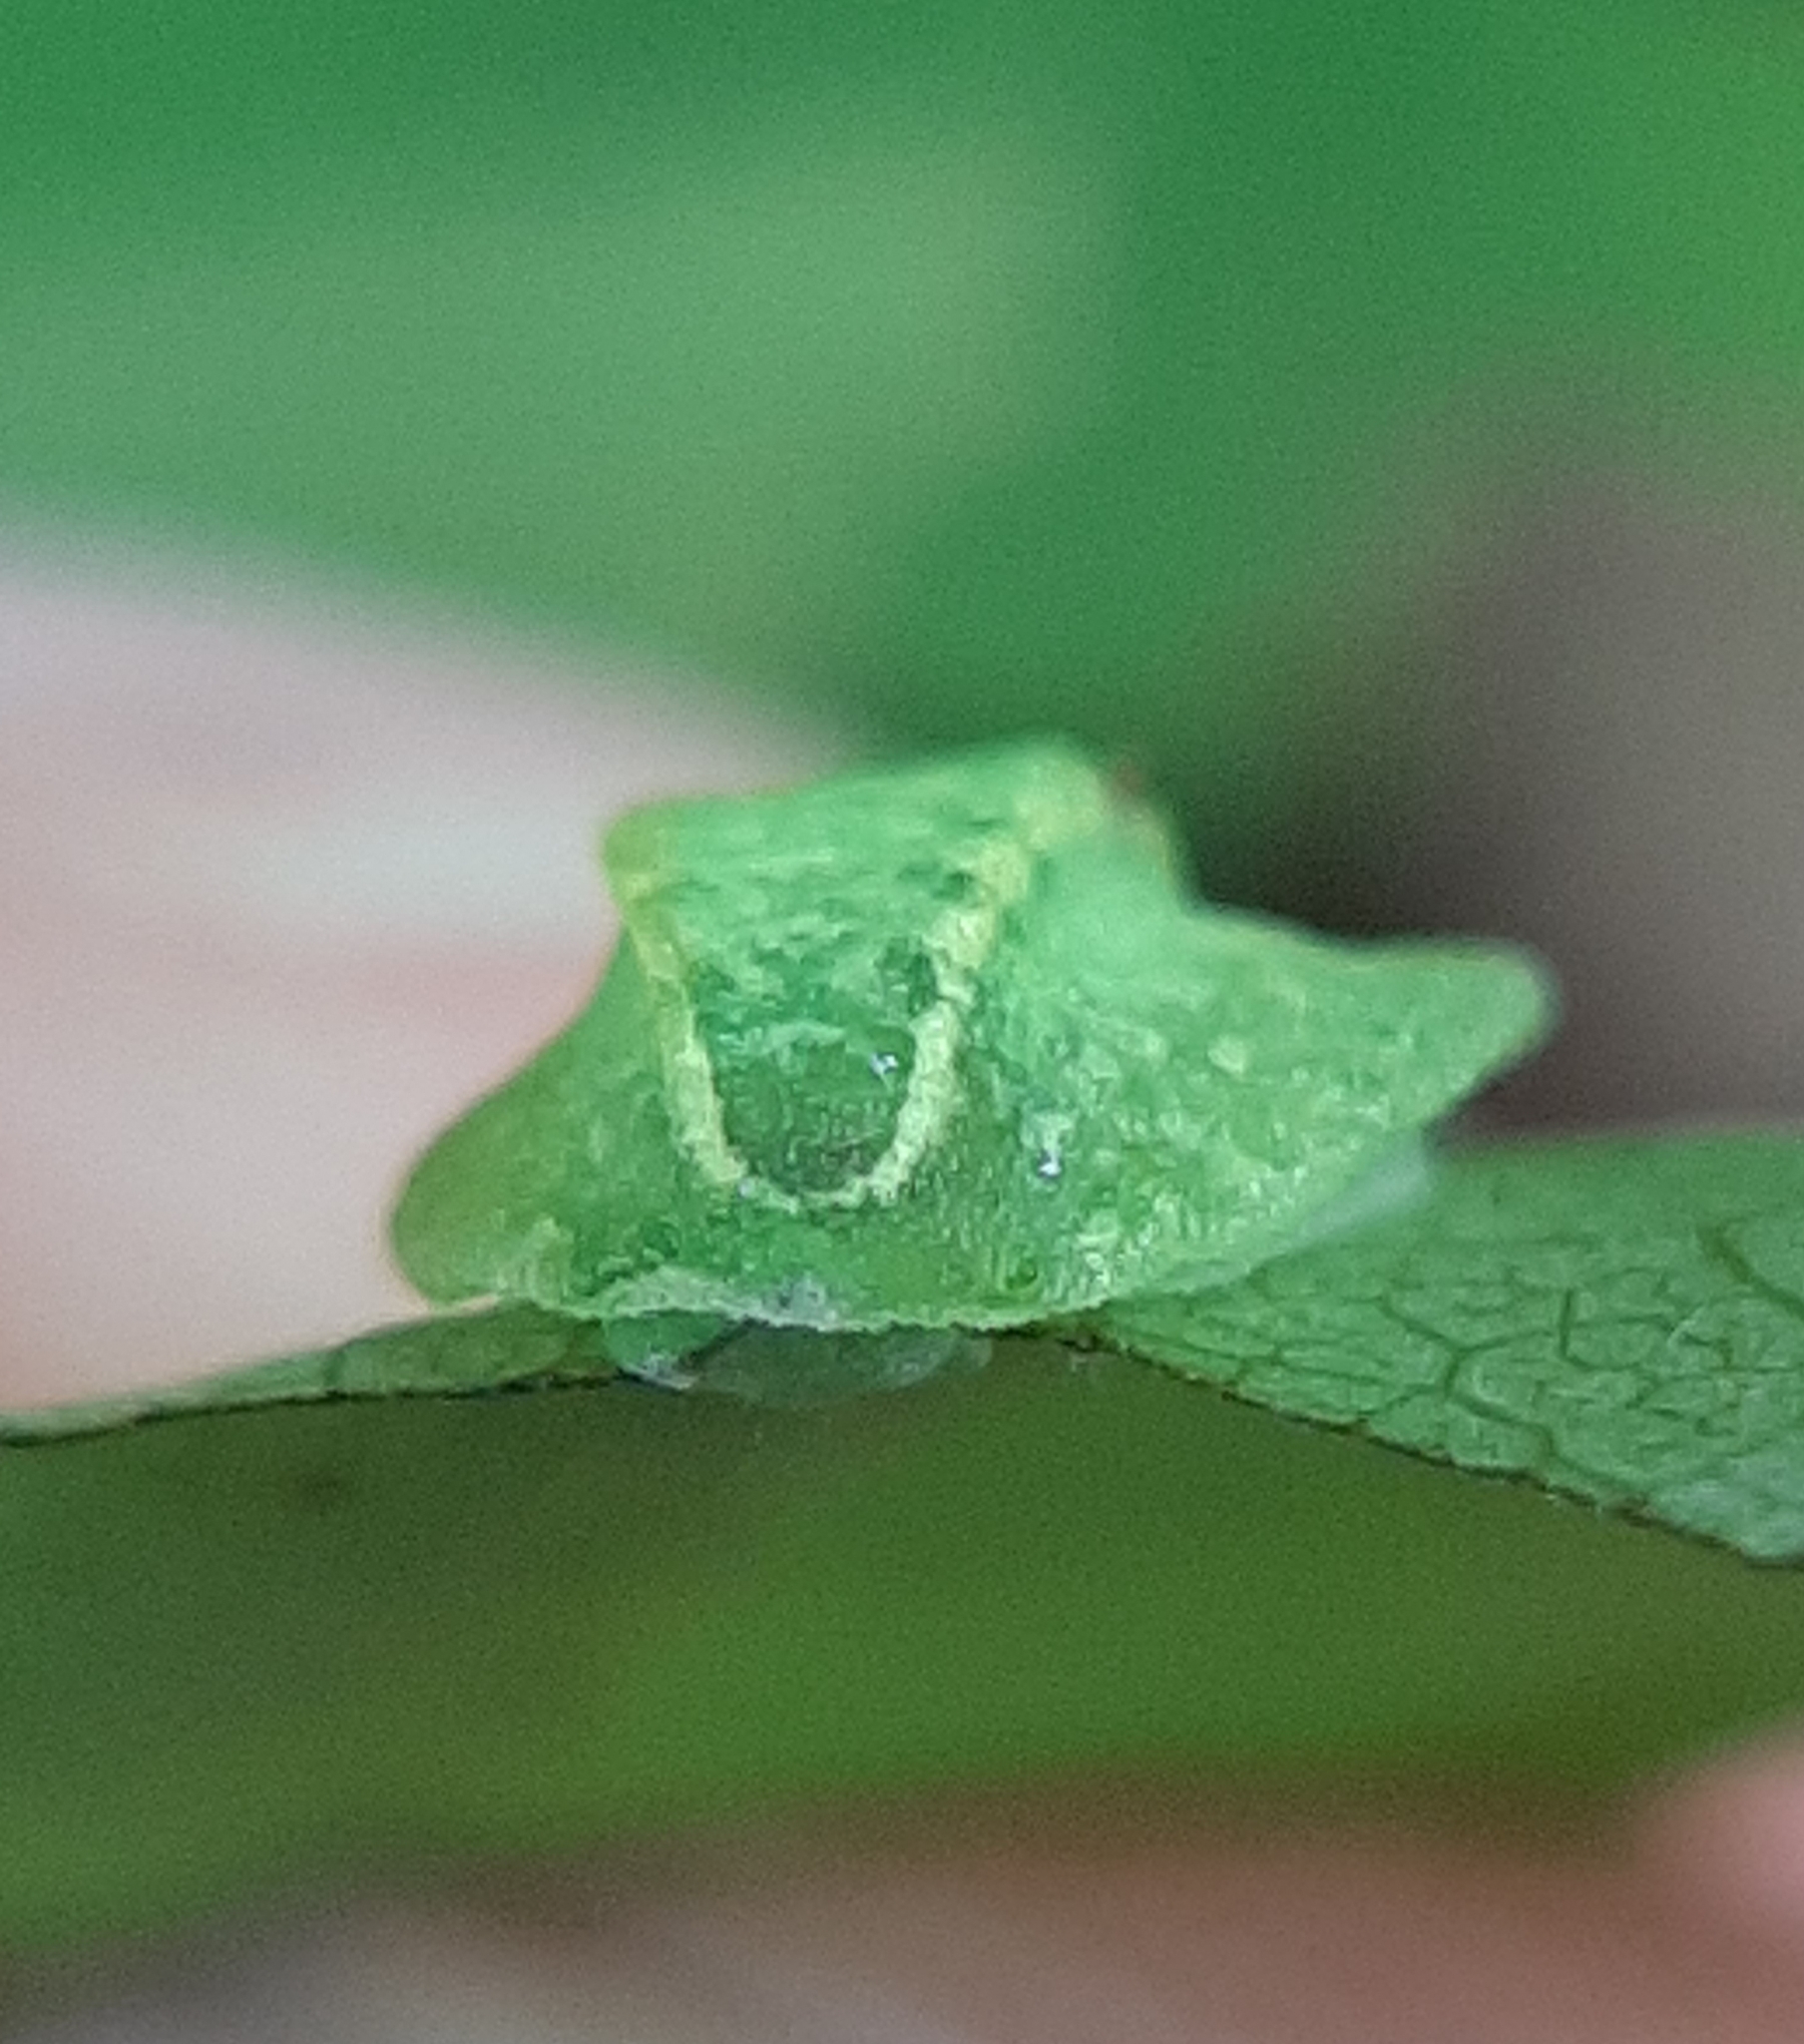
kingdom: Animalia
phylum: Arthropoda
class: Insecta
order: Lepidoptera
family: Limacodidae
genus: Lithacodes
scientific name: Lithacodes fasciola
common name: Yellow-shouldered slug moth
